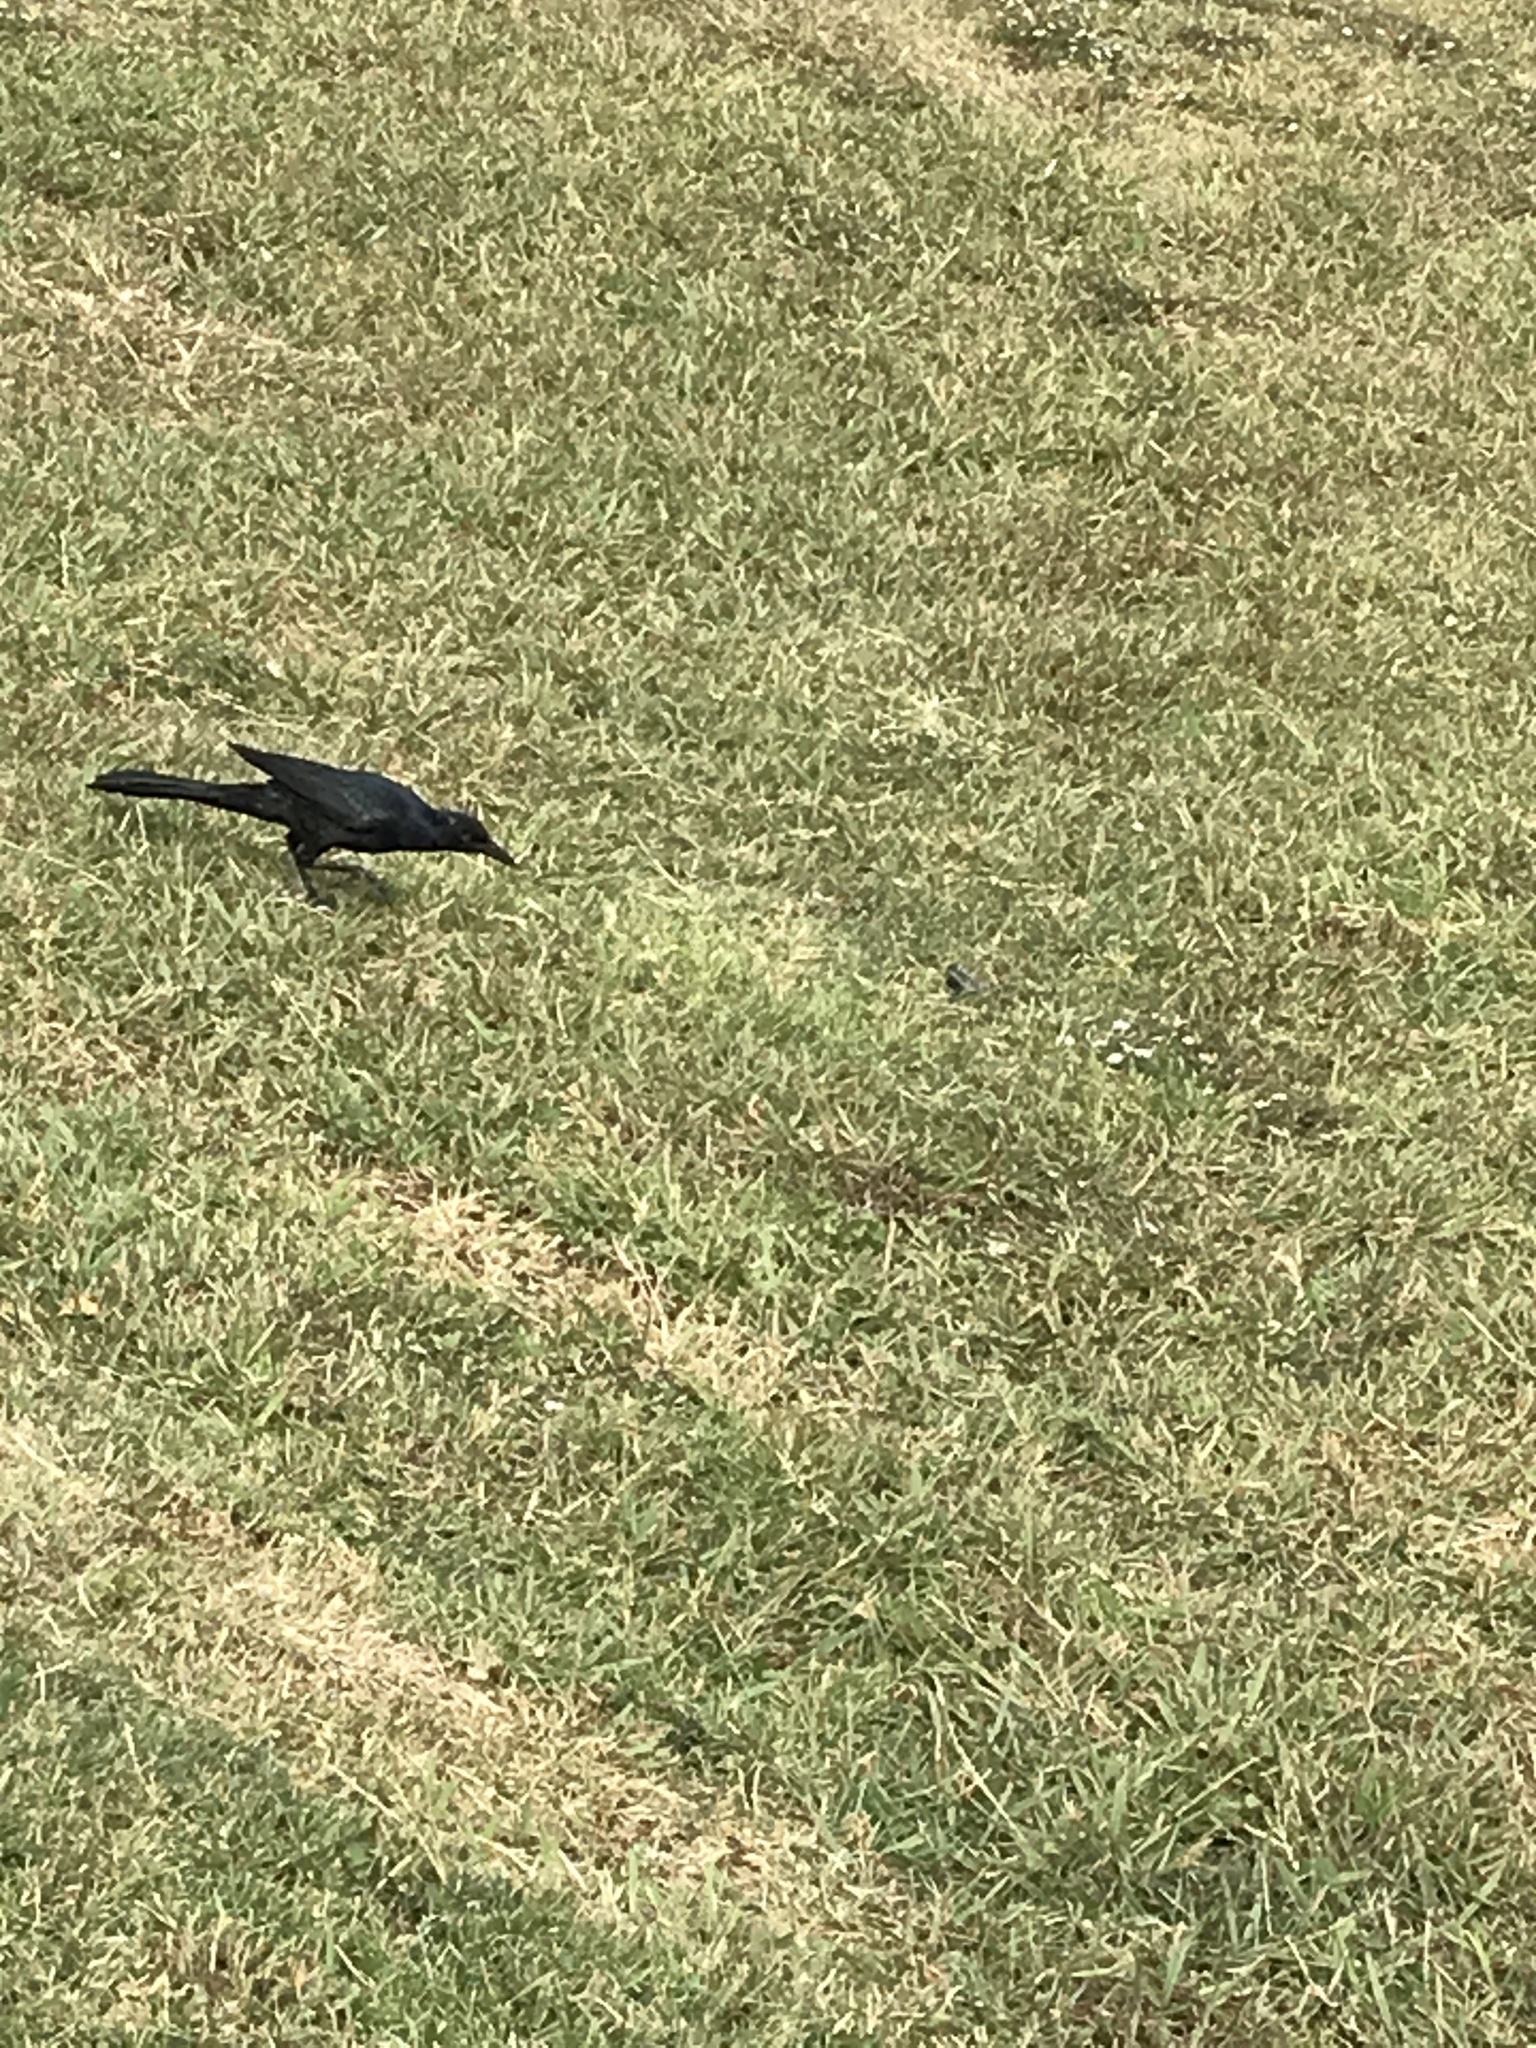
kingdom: Animalia
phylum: Chordata
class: Aves
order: Passeriformes
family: Icteridae
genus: Quiscalus
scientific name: Quiscalus mexicanus
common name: Great-tailed grackle
